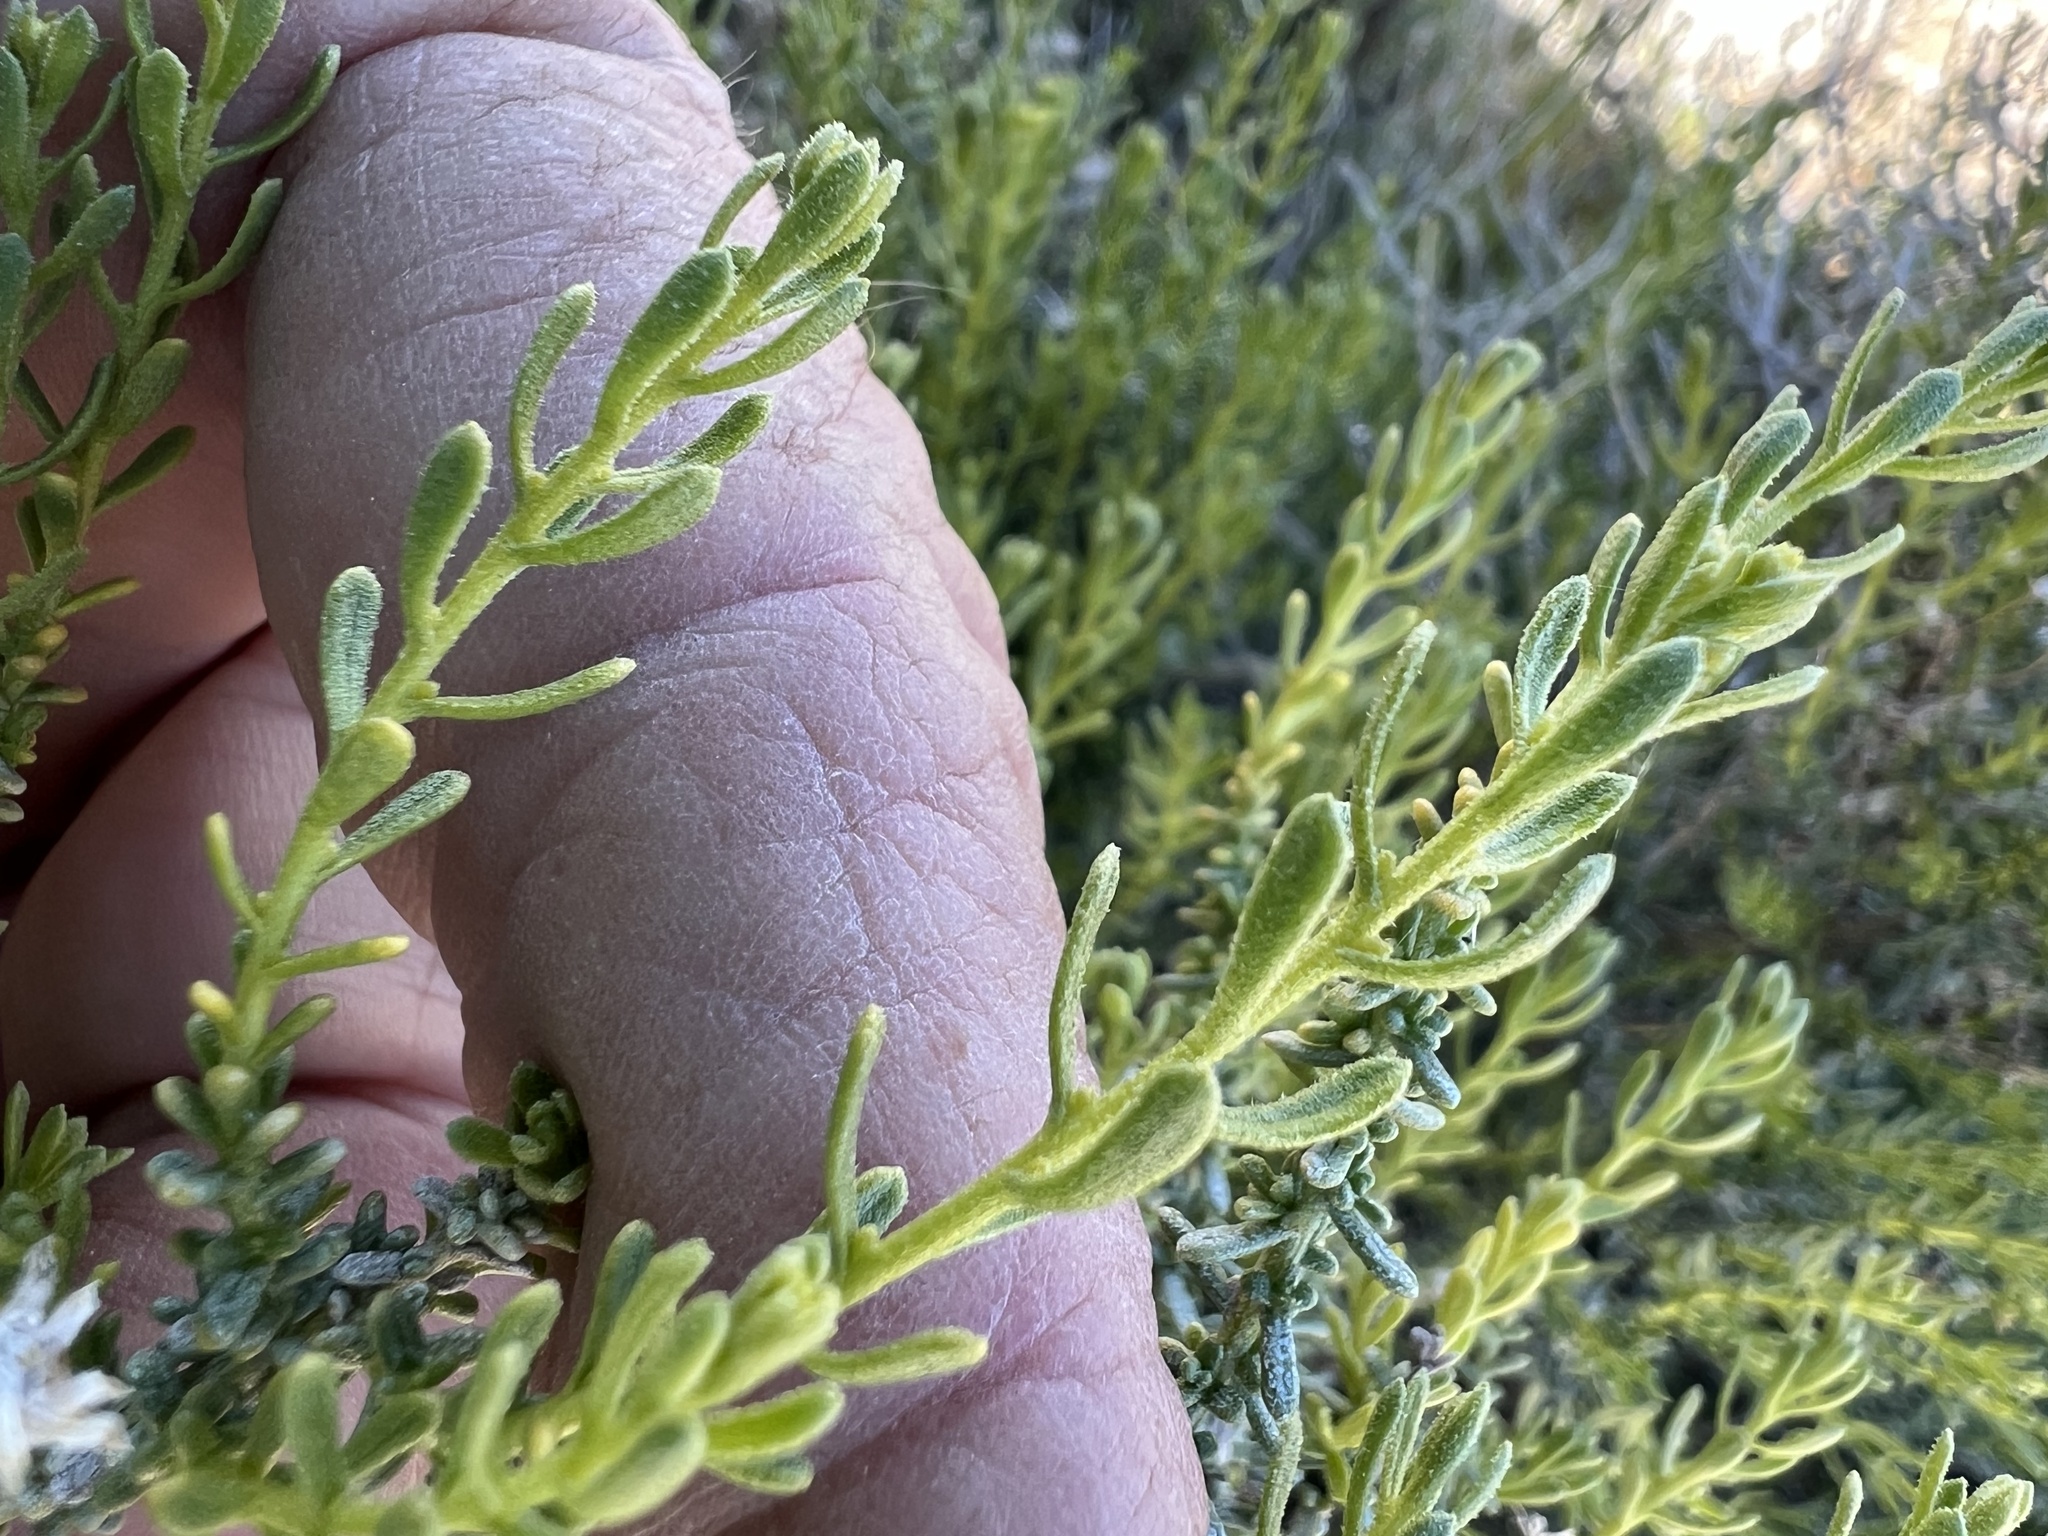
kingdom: Plantae
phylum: Tracheophyta
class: Magnoliopsida
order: Asterales
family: Asteraceae
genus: Ericameria
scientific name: Ericameria cooperi
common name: Cooper's goldenbush
